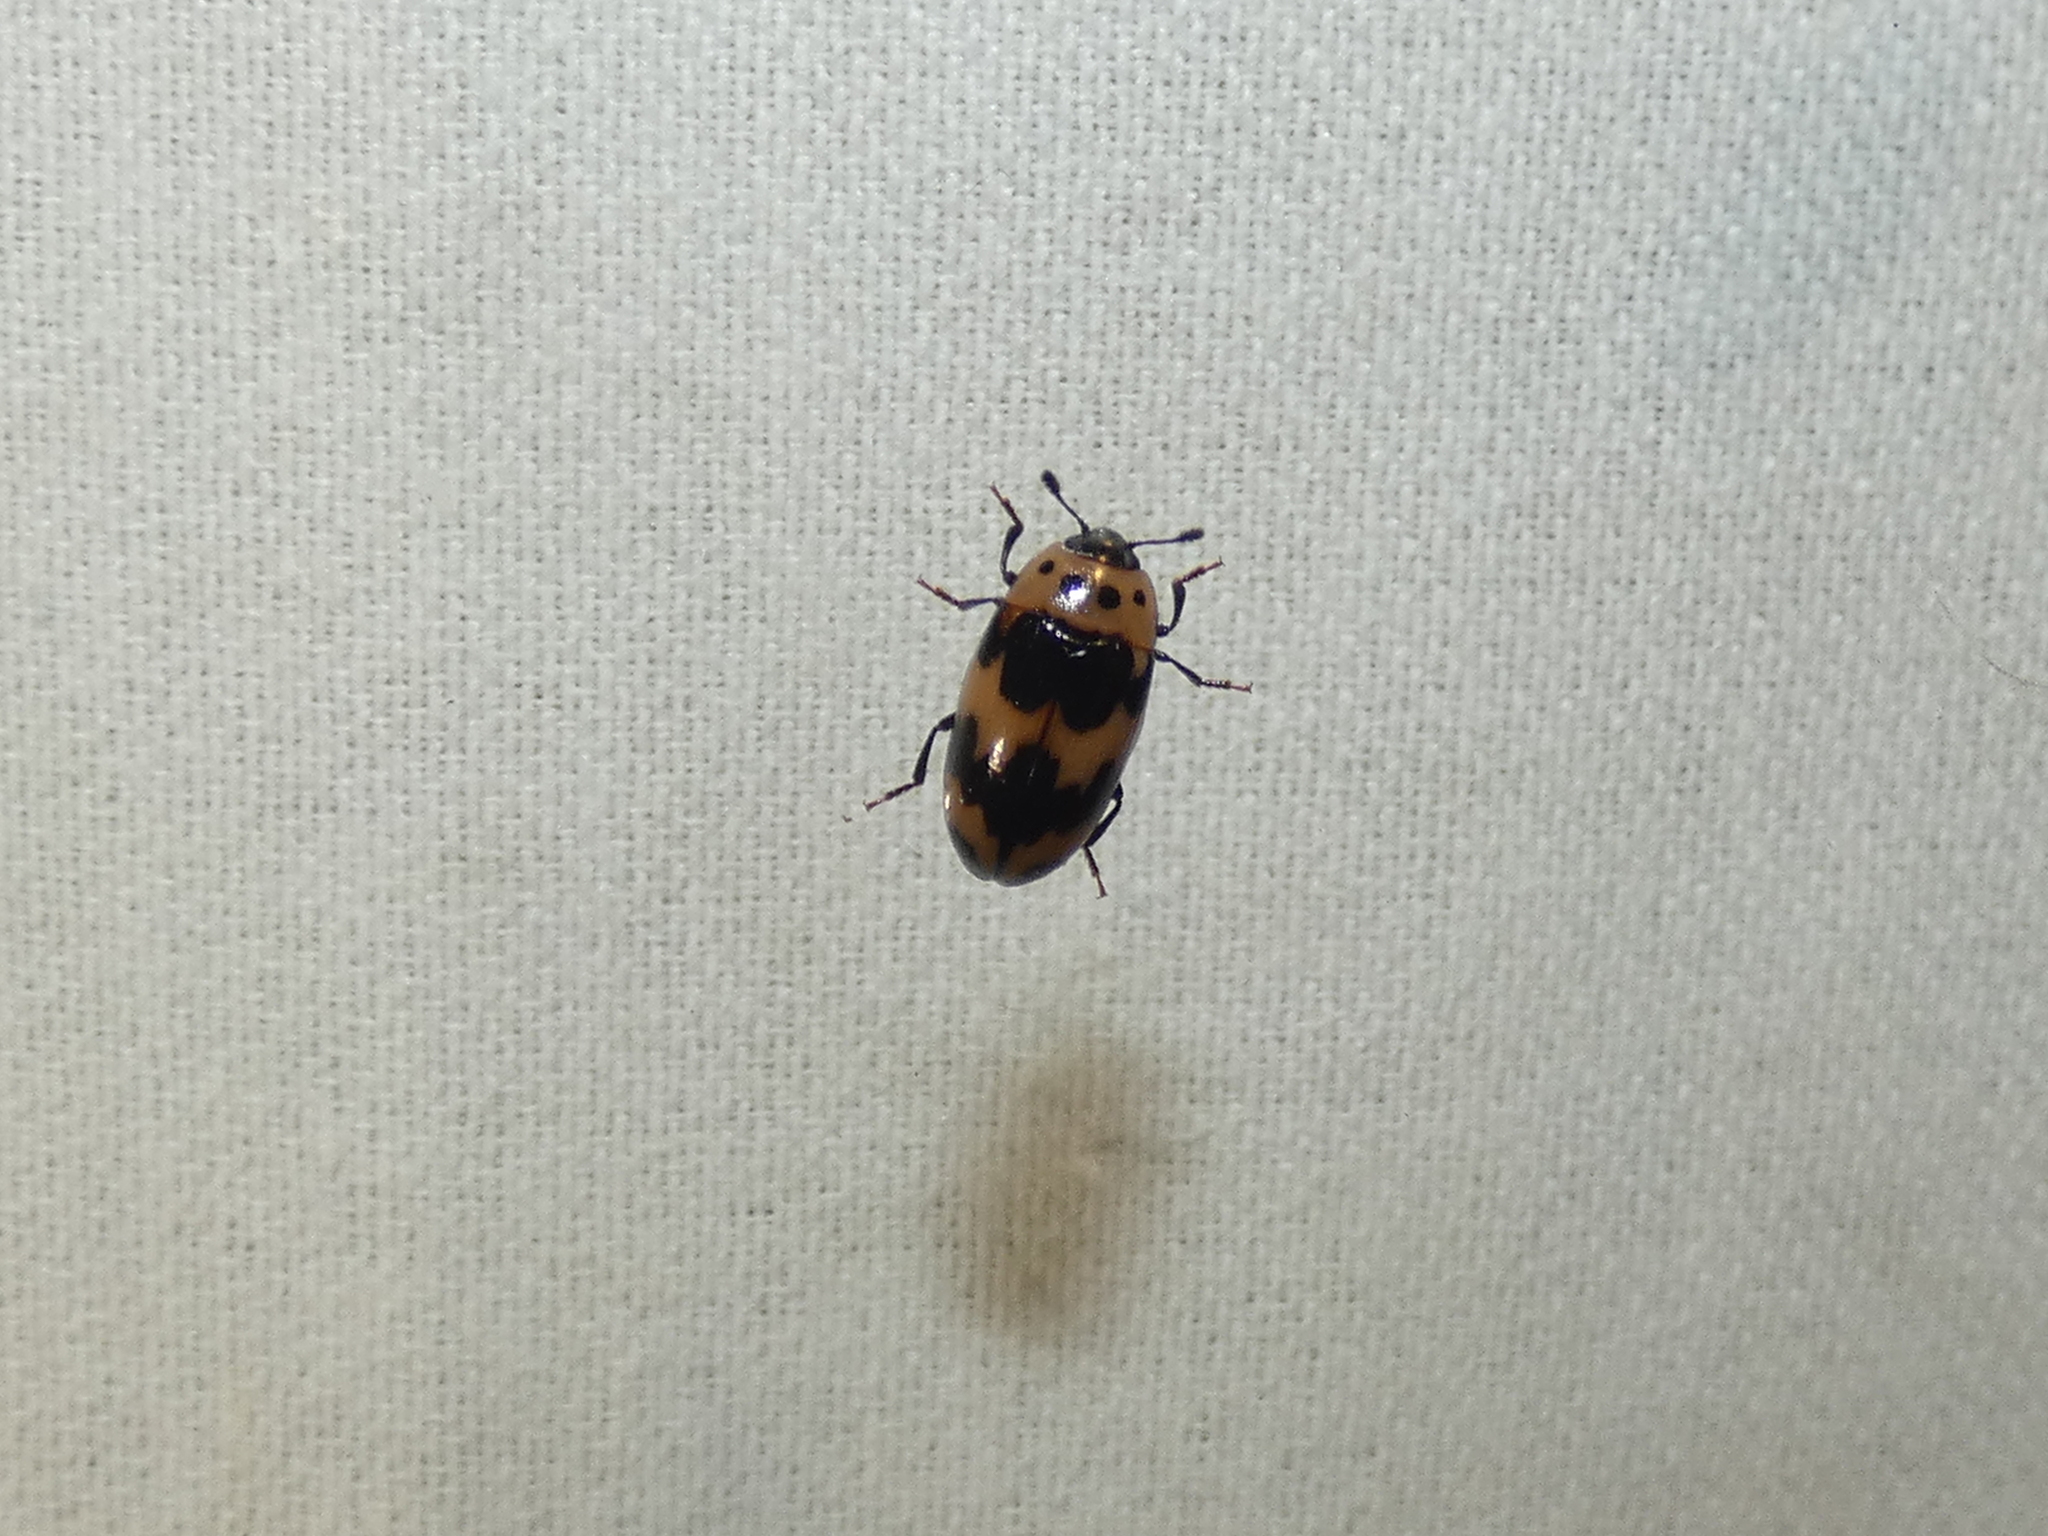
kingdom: Animalia
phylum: Arthropoda
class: Insecta
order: Coleoptera
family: Erotylidae
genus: Ischyrus
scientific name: Ischyrus quadripunctatus
